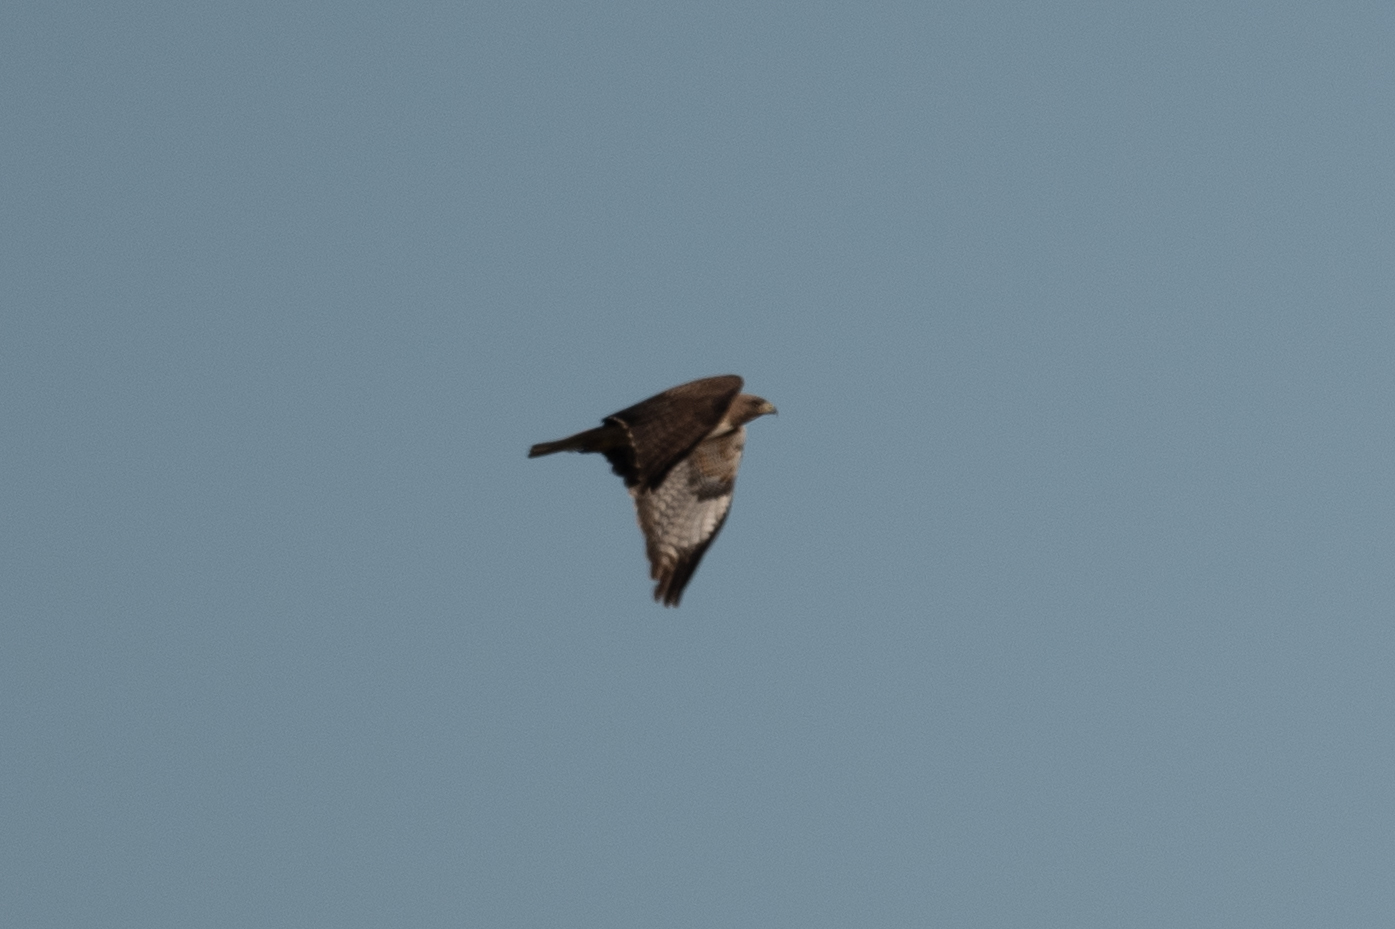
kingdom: Animalia
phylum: Chordata
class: Aves
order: Accipitriformes
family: Accipitridae
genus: Buteo
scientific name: Buteo jamaicensis
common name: Red-tailed hawk
